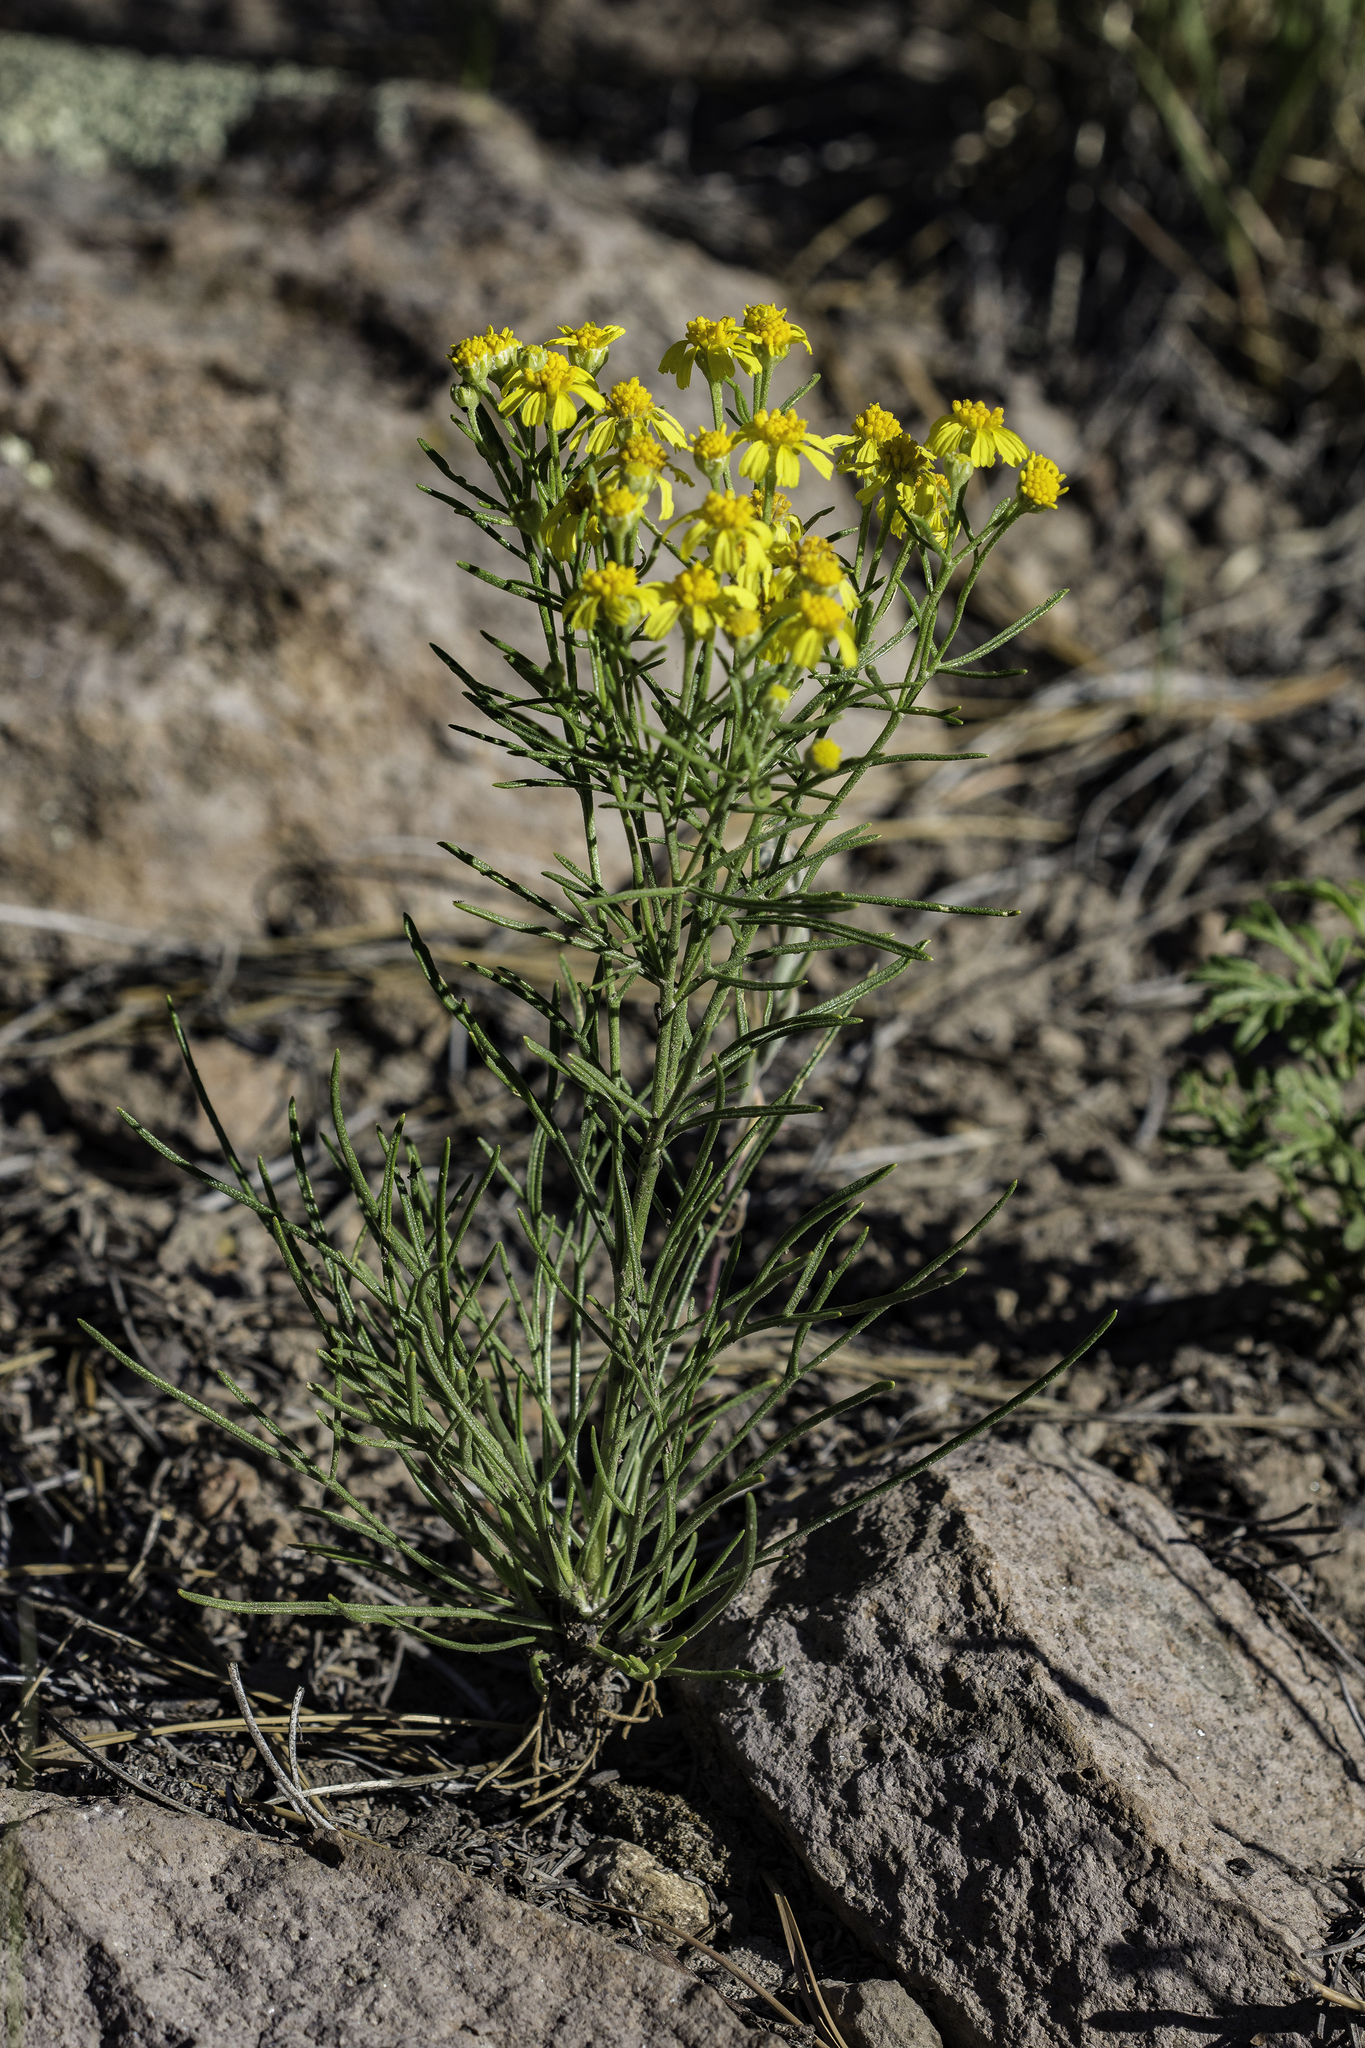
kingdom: Plantae
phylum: Tracheophyta
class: Magnoliopsida
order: Asterales
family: Asteraceae
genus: Hymenoxys
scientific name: Hymenoxys richardsonii
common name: Pingue rubberweed
